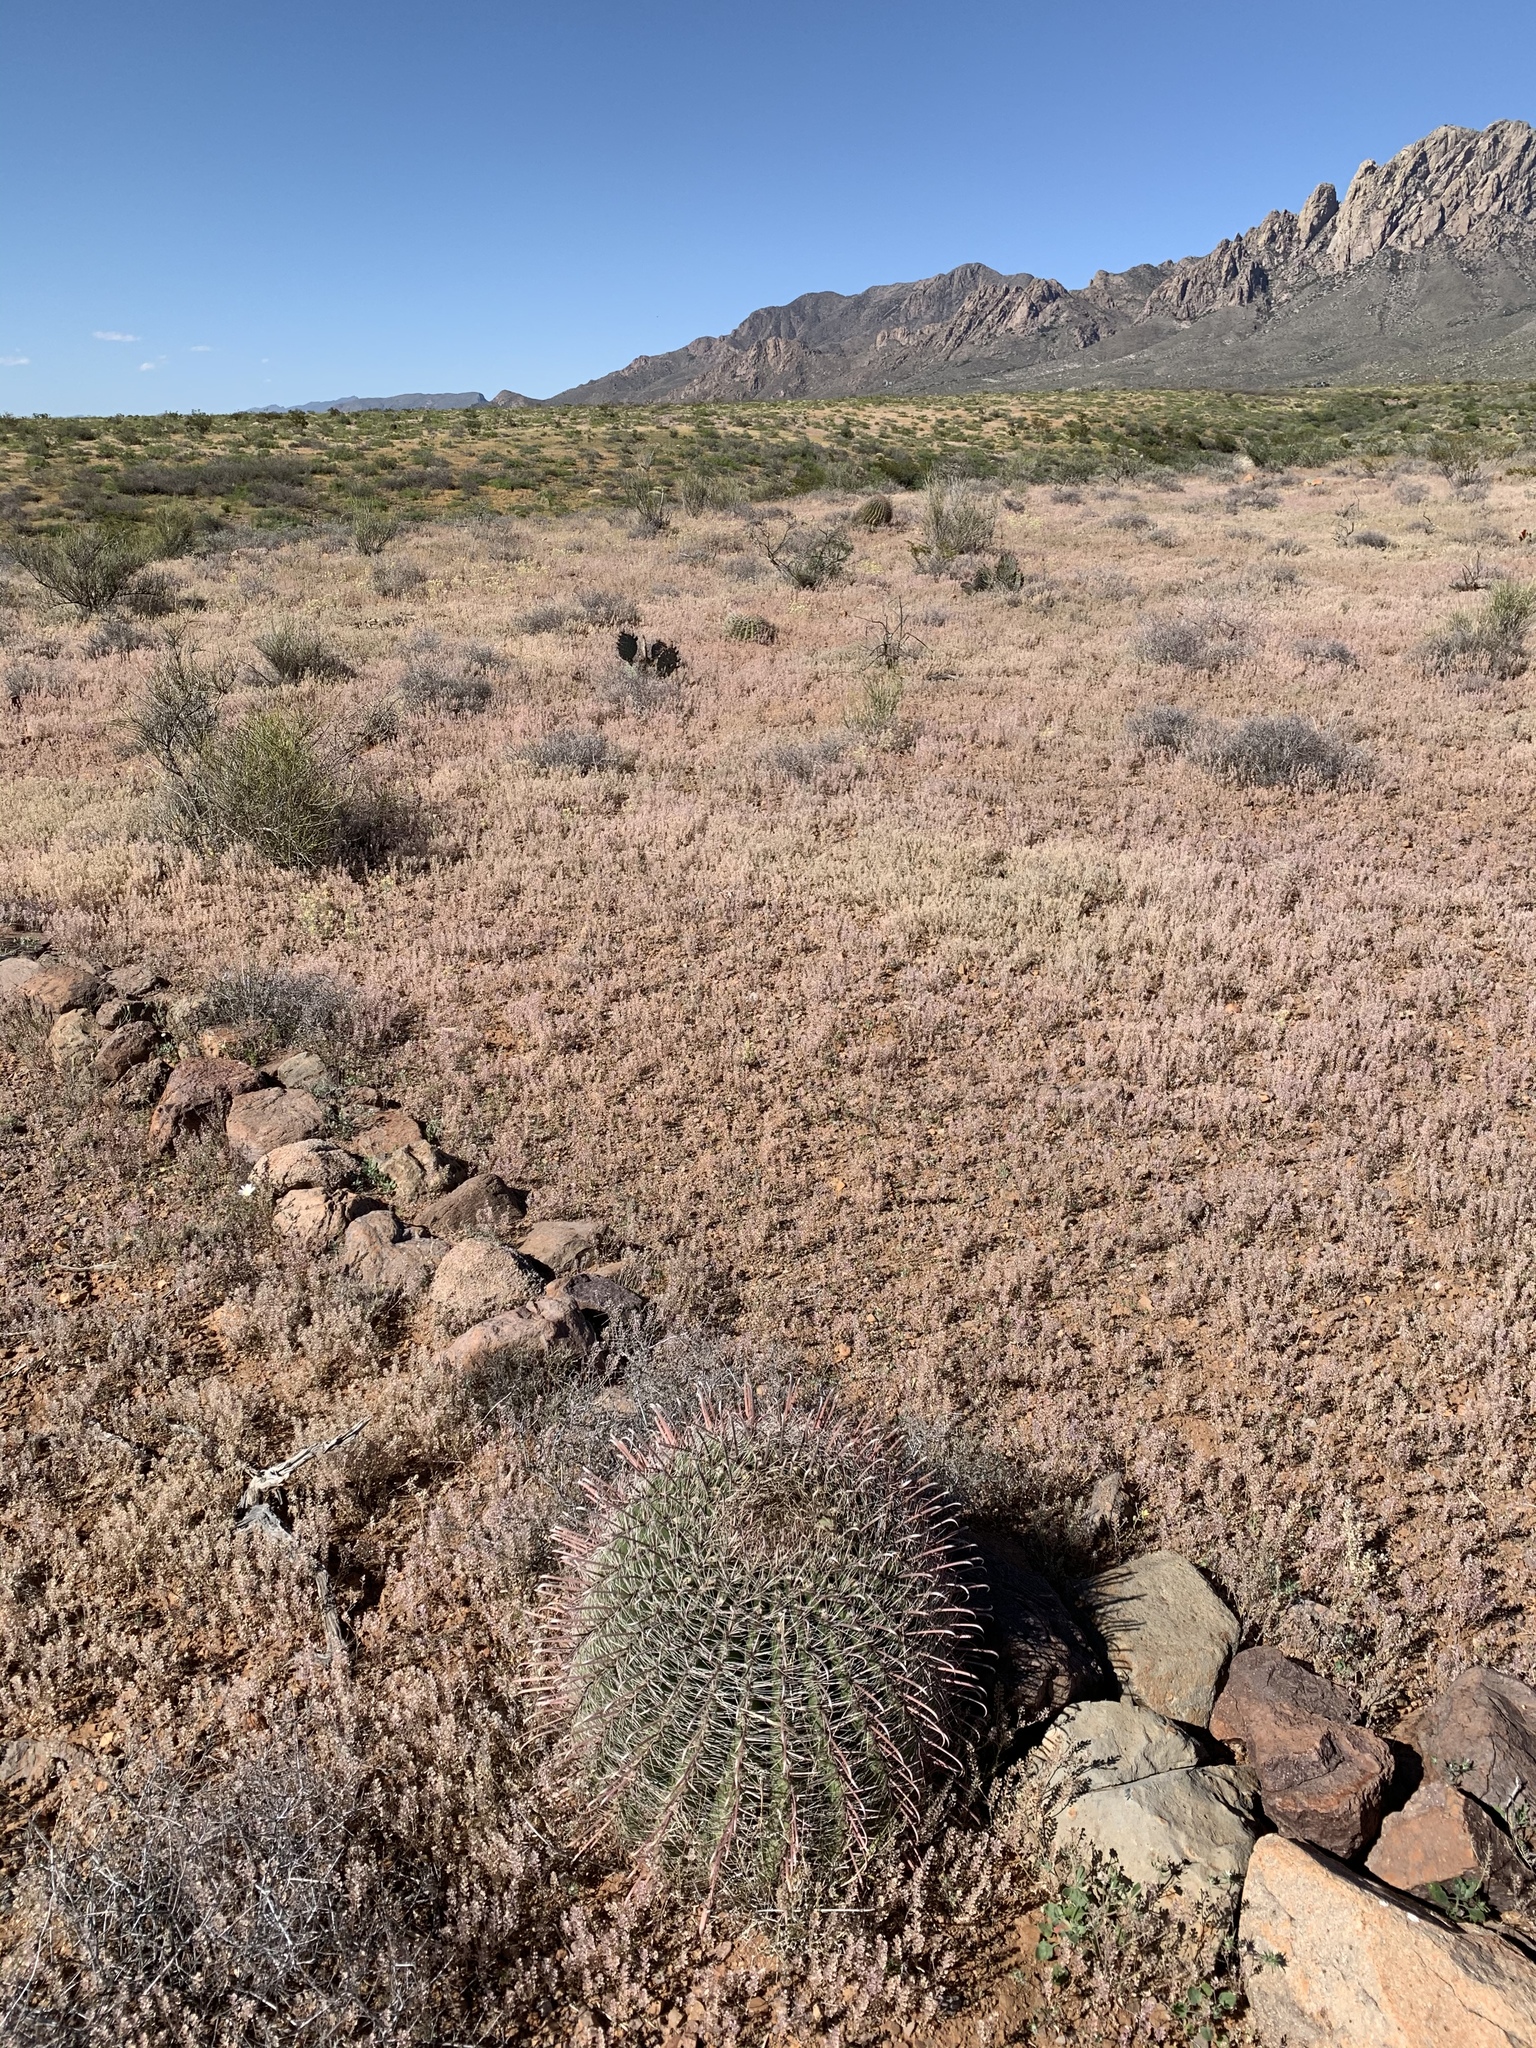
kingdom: Plantae
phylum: Tracheophyta
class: Magnoliopsida
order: Caryophyllales
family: Cactaceae
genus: Ferocactus
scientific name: Ferocactus wislizeni
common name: Candy barrel cactus
